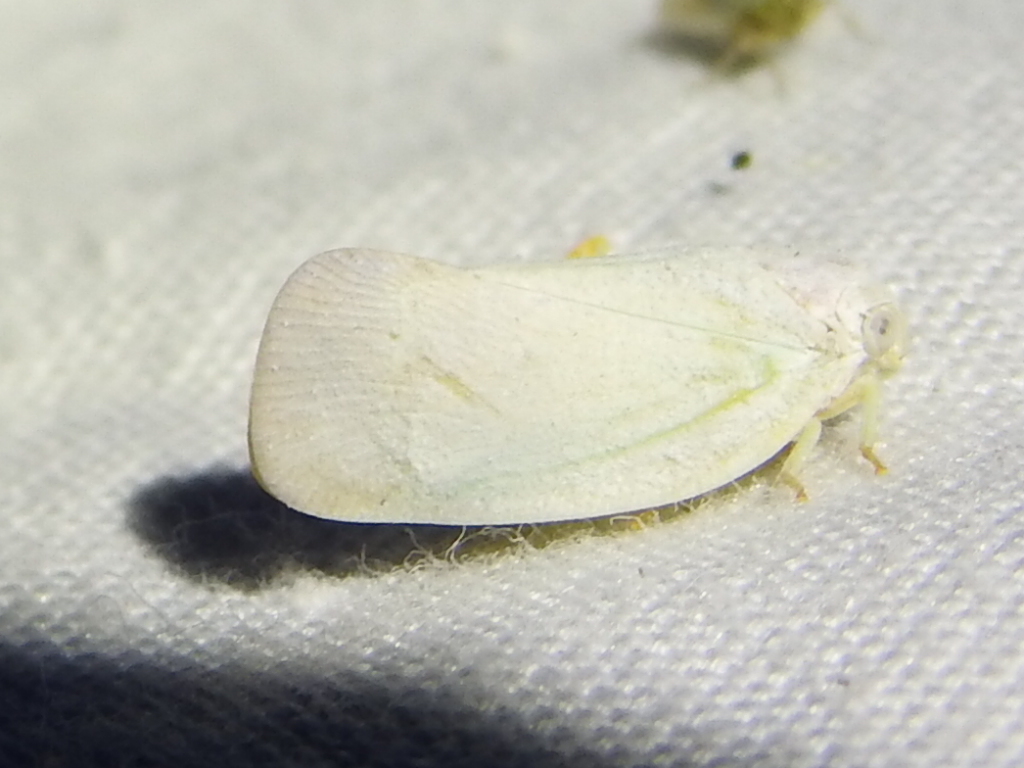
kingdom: Animalia
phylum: Arthropoda
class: Insecta
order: Hemiptera
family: Flatidae
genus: Flatormenis
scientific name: Flatormenis saucia
